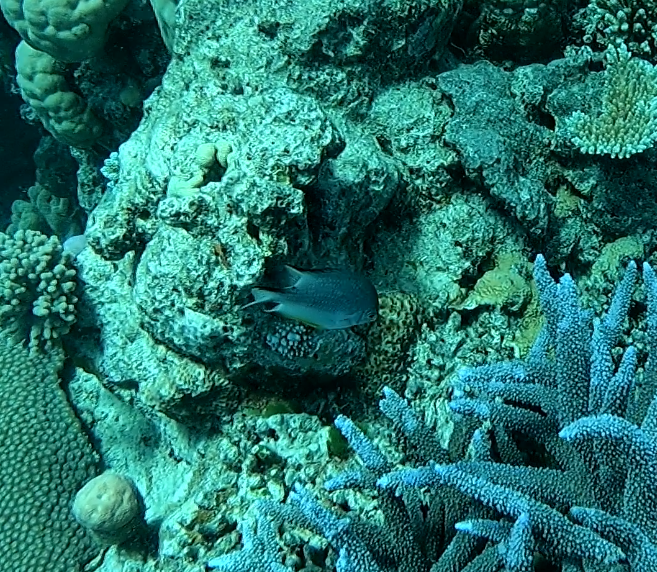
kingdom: Animalia
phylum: Chordata
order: Perciformes
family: Pomacentridae
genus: Amblyglyphidodon
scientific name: Amblyglyphidodon leucogaster
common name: White-belly damsel
